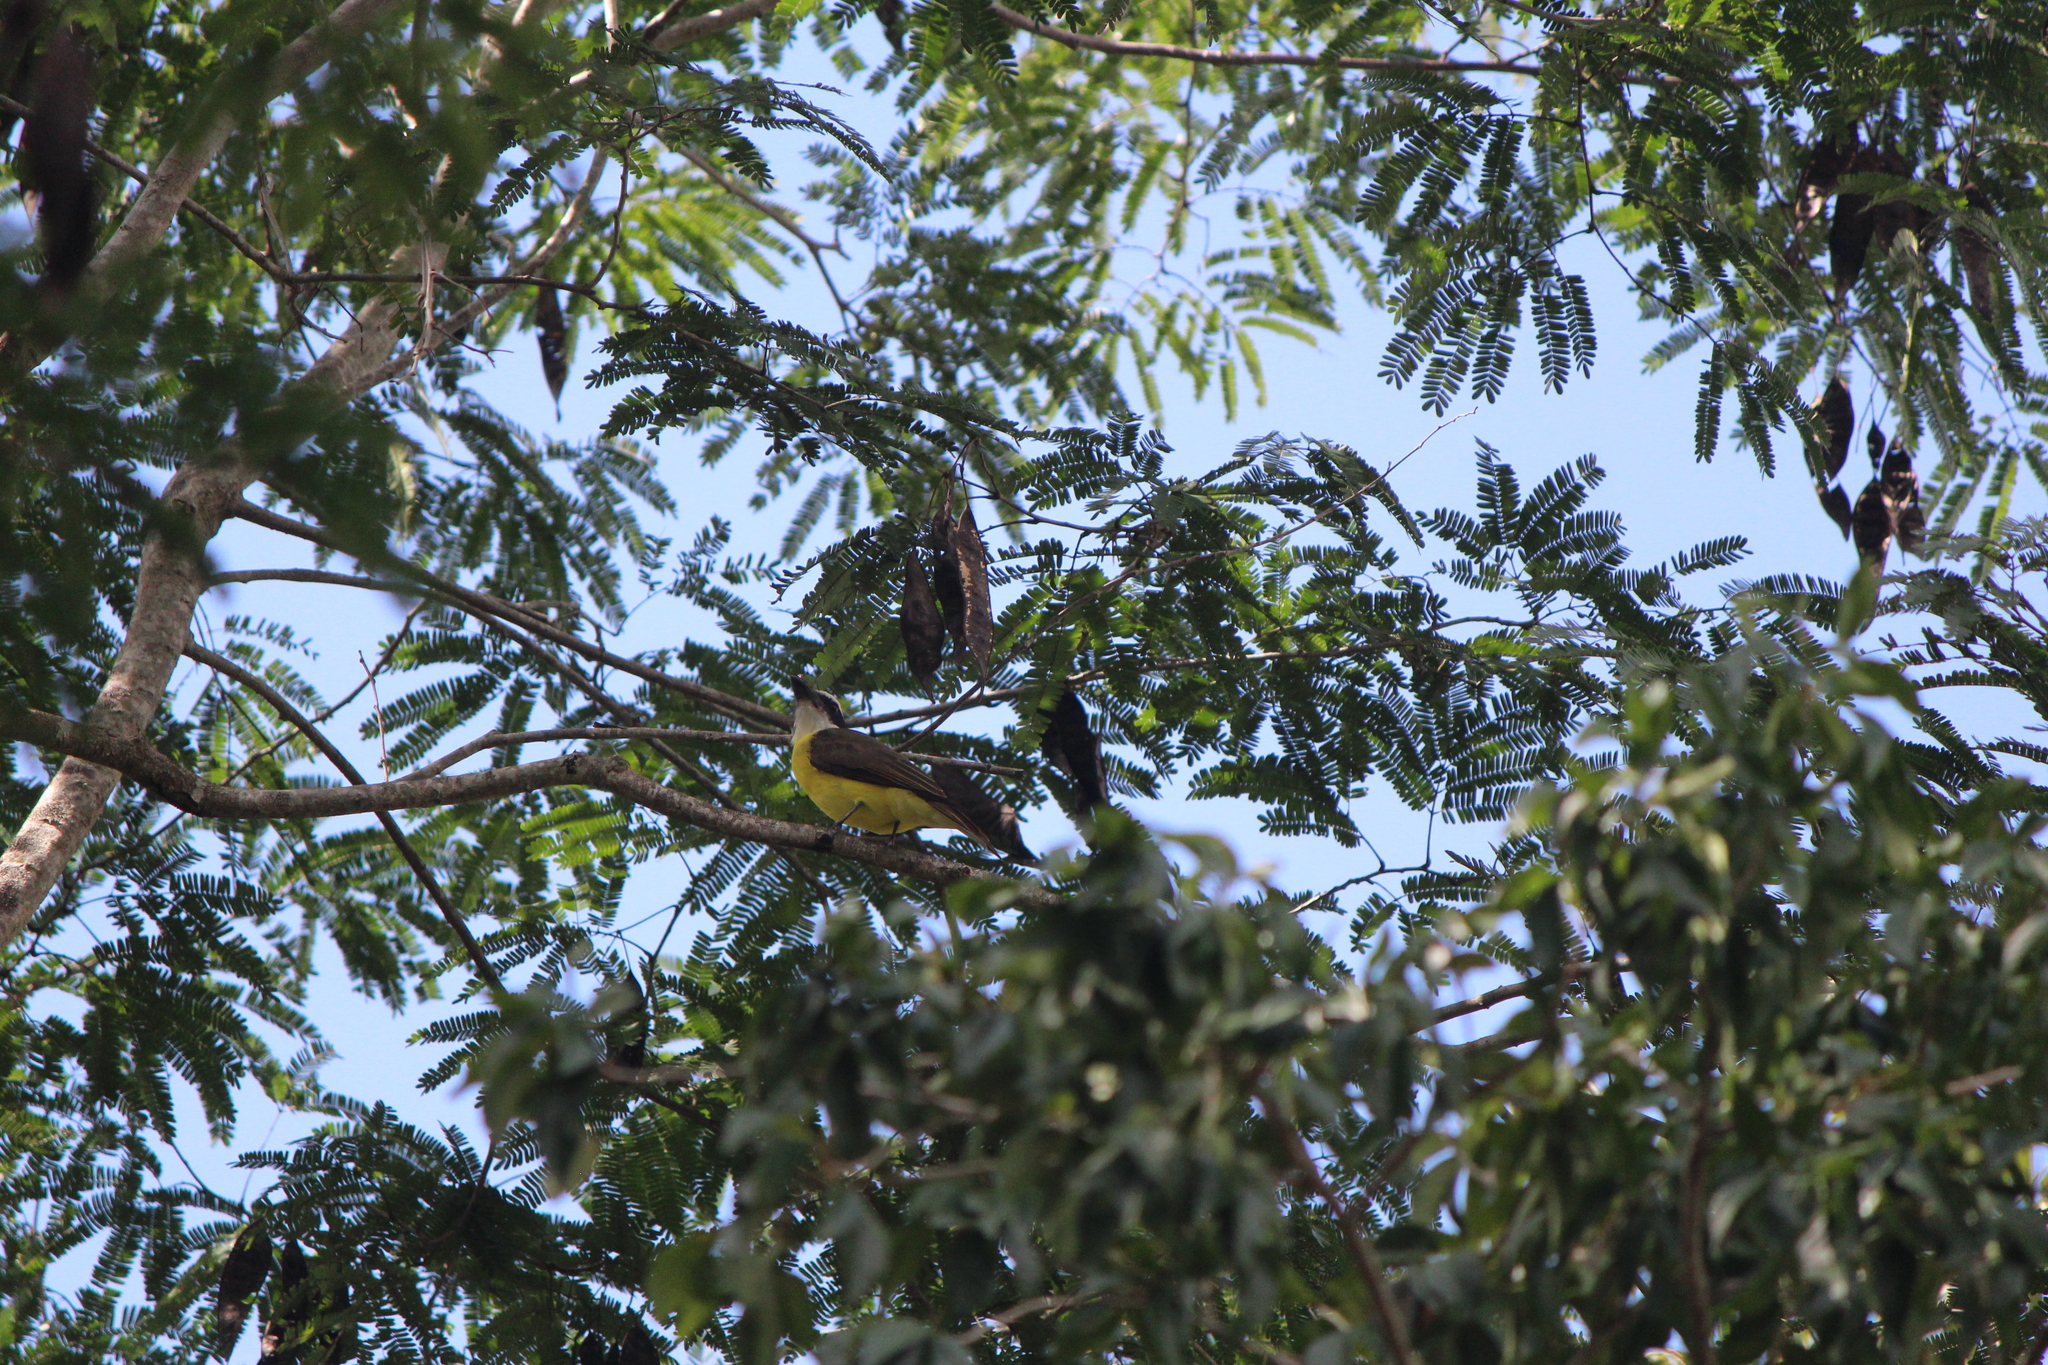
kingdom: Animalia
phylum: Chordata
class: Aves
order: Passeriformes
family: Tyrannidae
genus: Megarynchus
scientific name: Megarynchus pitangua
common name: Boat-billed flycatcher
